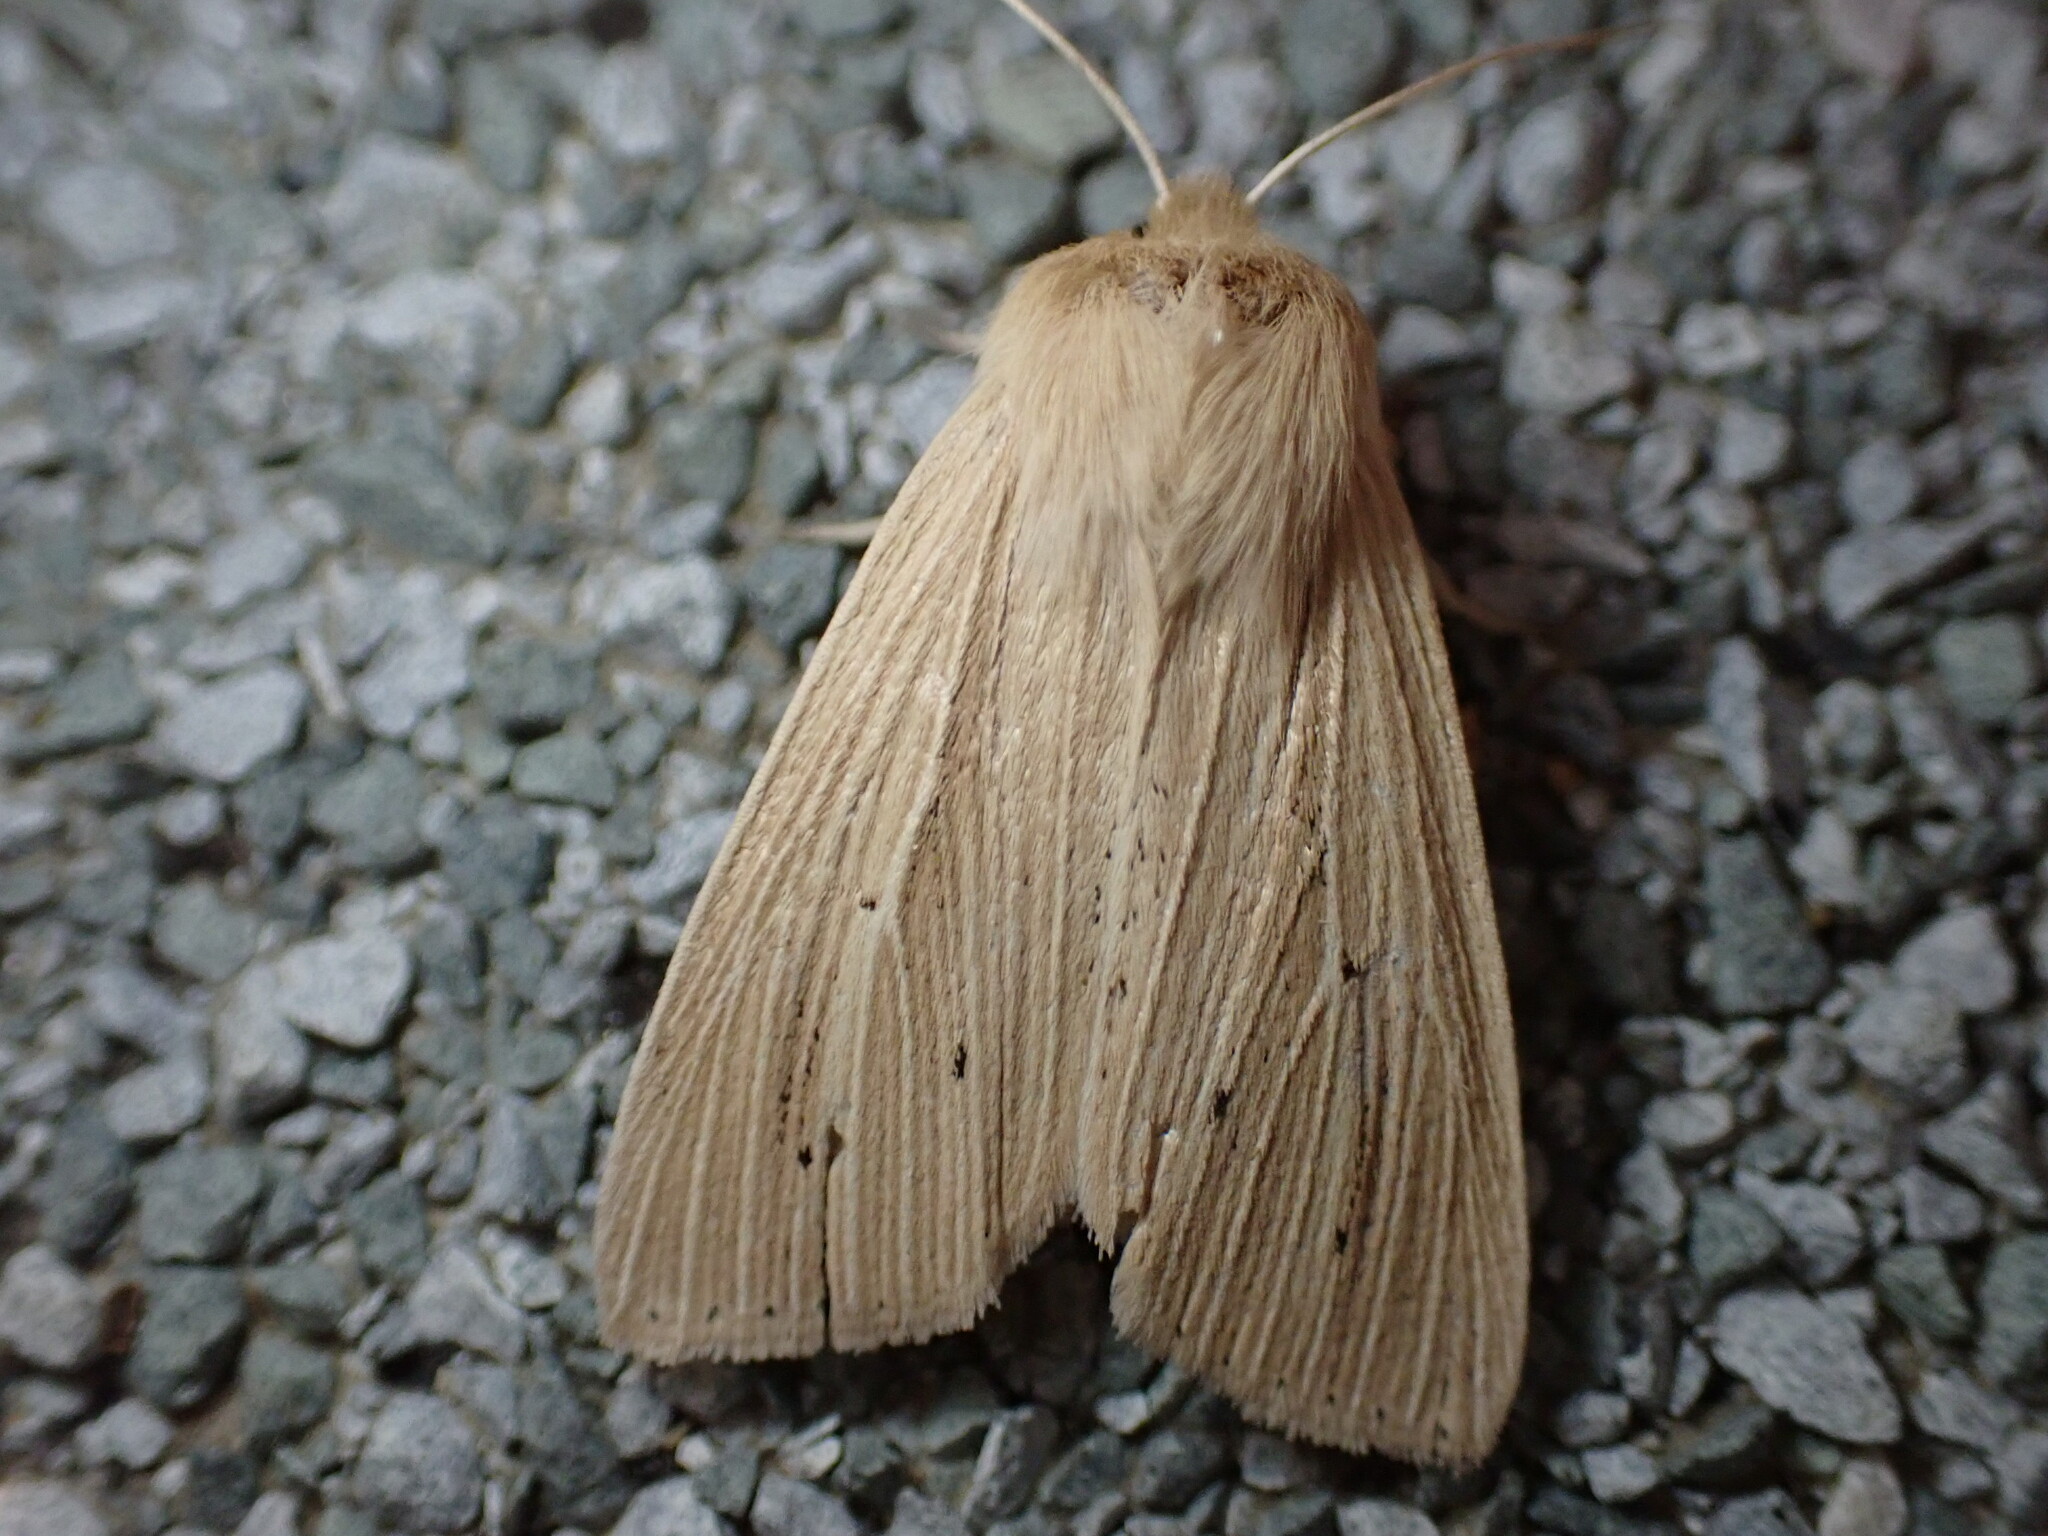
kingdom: Animalia
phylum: Arthropoda
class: Insecta
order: Lepidoptera
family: Noctuidae
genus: Mythimna
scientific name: Mythimna oxygala
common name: Lesser wainscot
